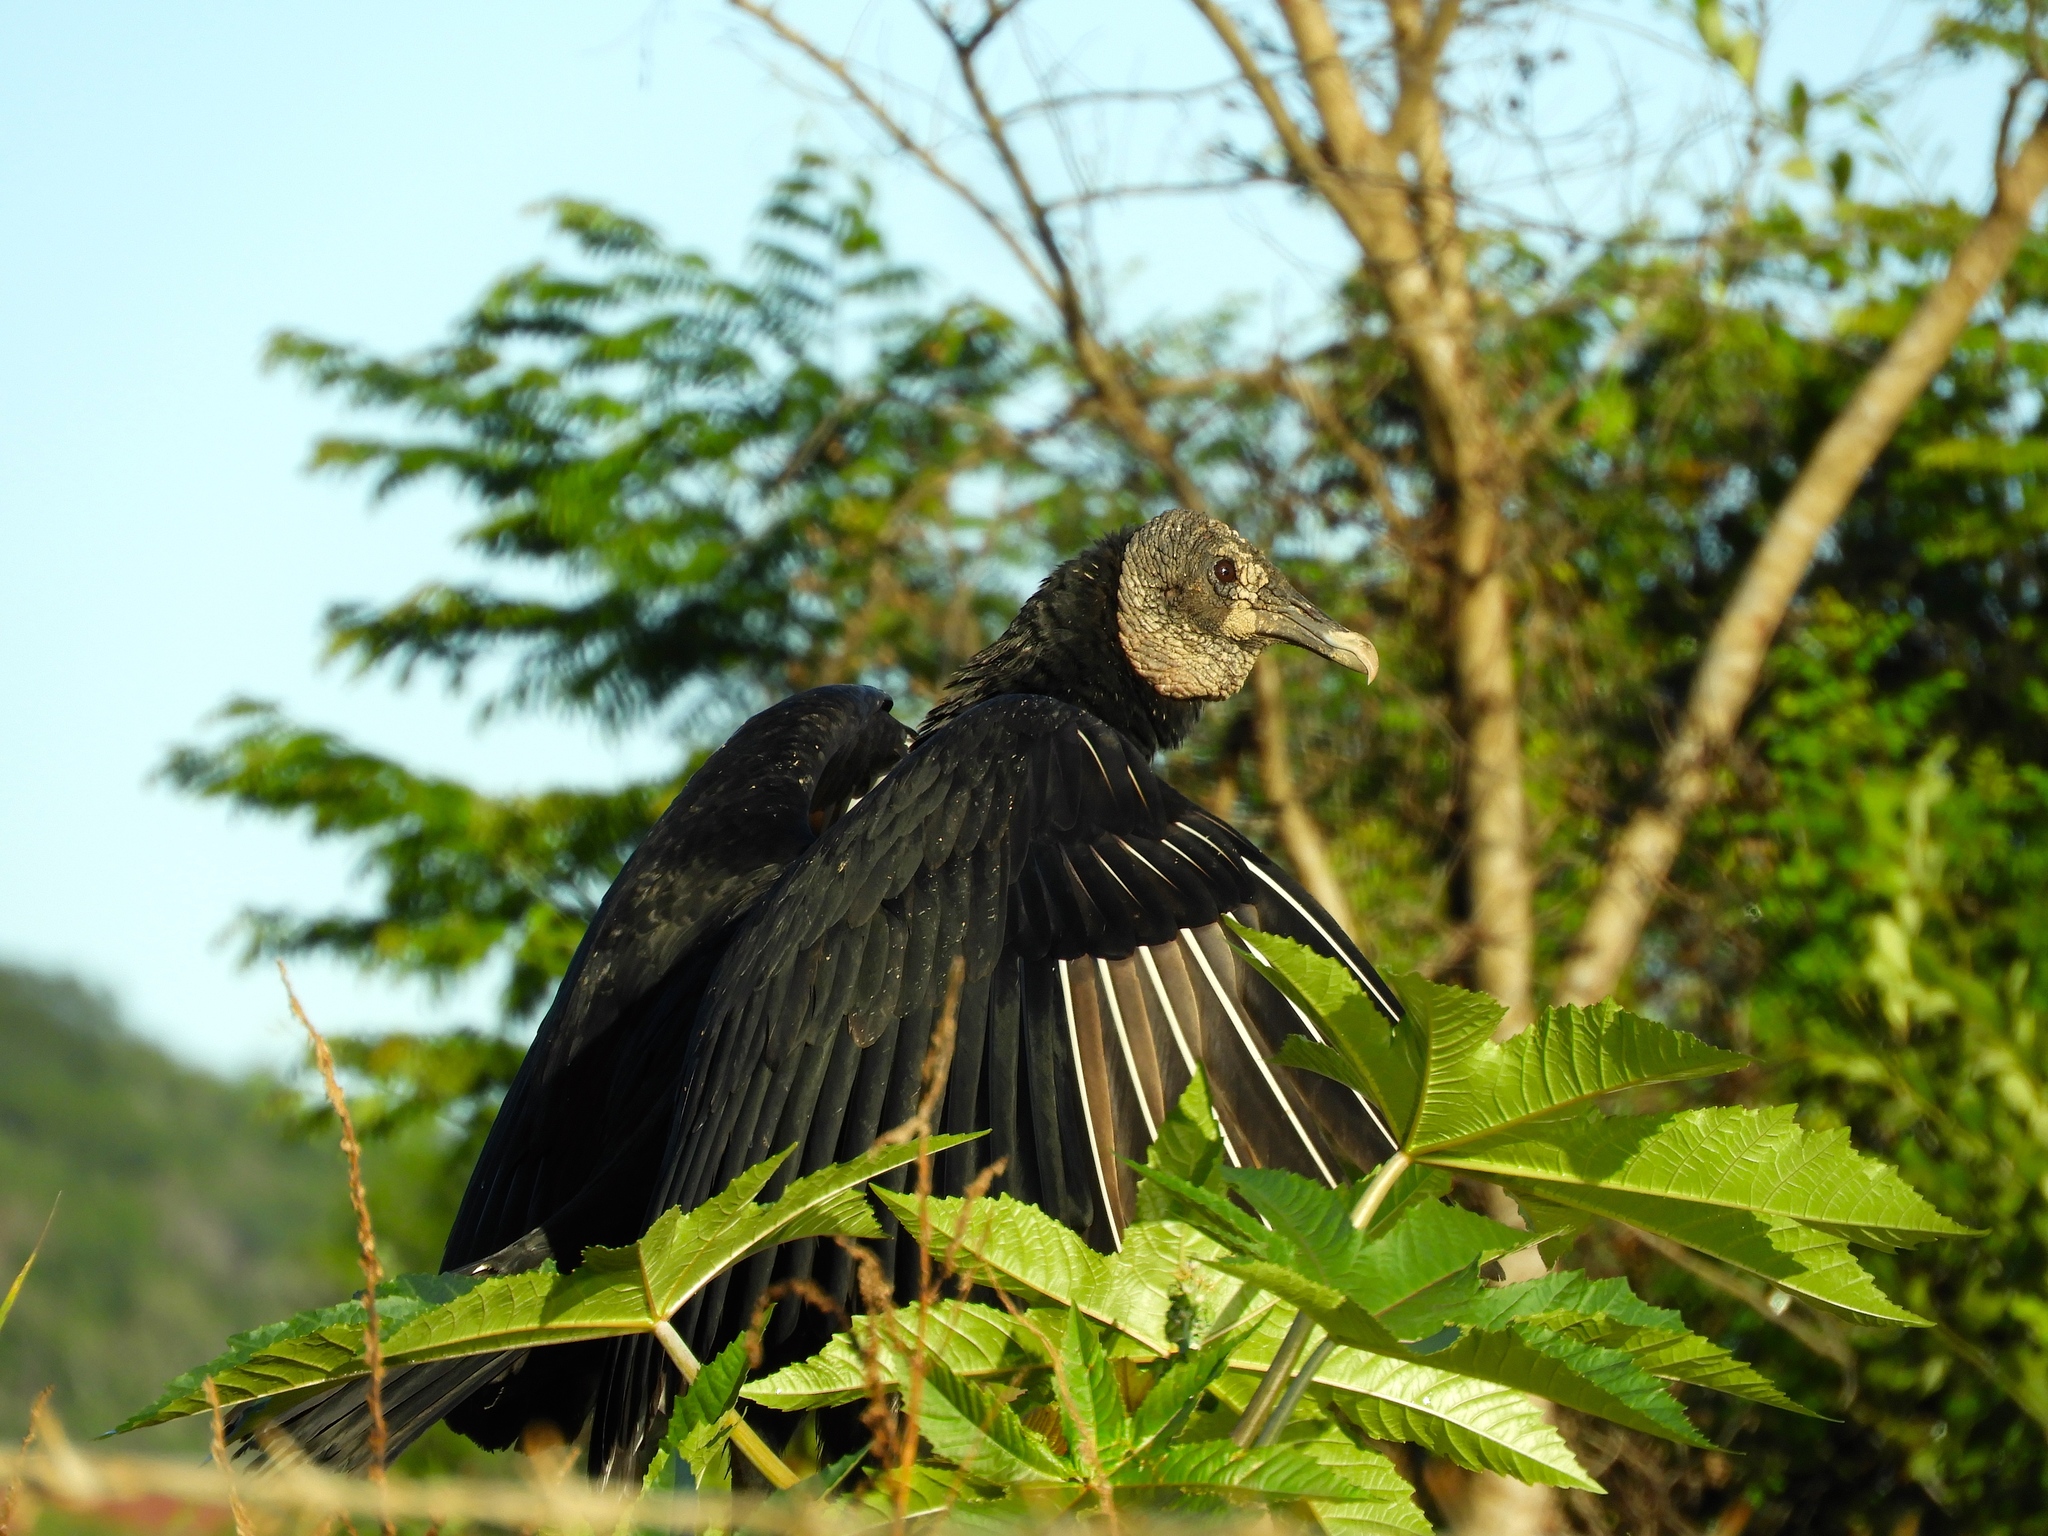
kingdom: Animalia
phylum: Chordata
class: Aves
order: Accipitriformes
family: Cathartidae
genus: Coragyps
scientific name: Coragyps atratus
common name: Black vulture
